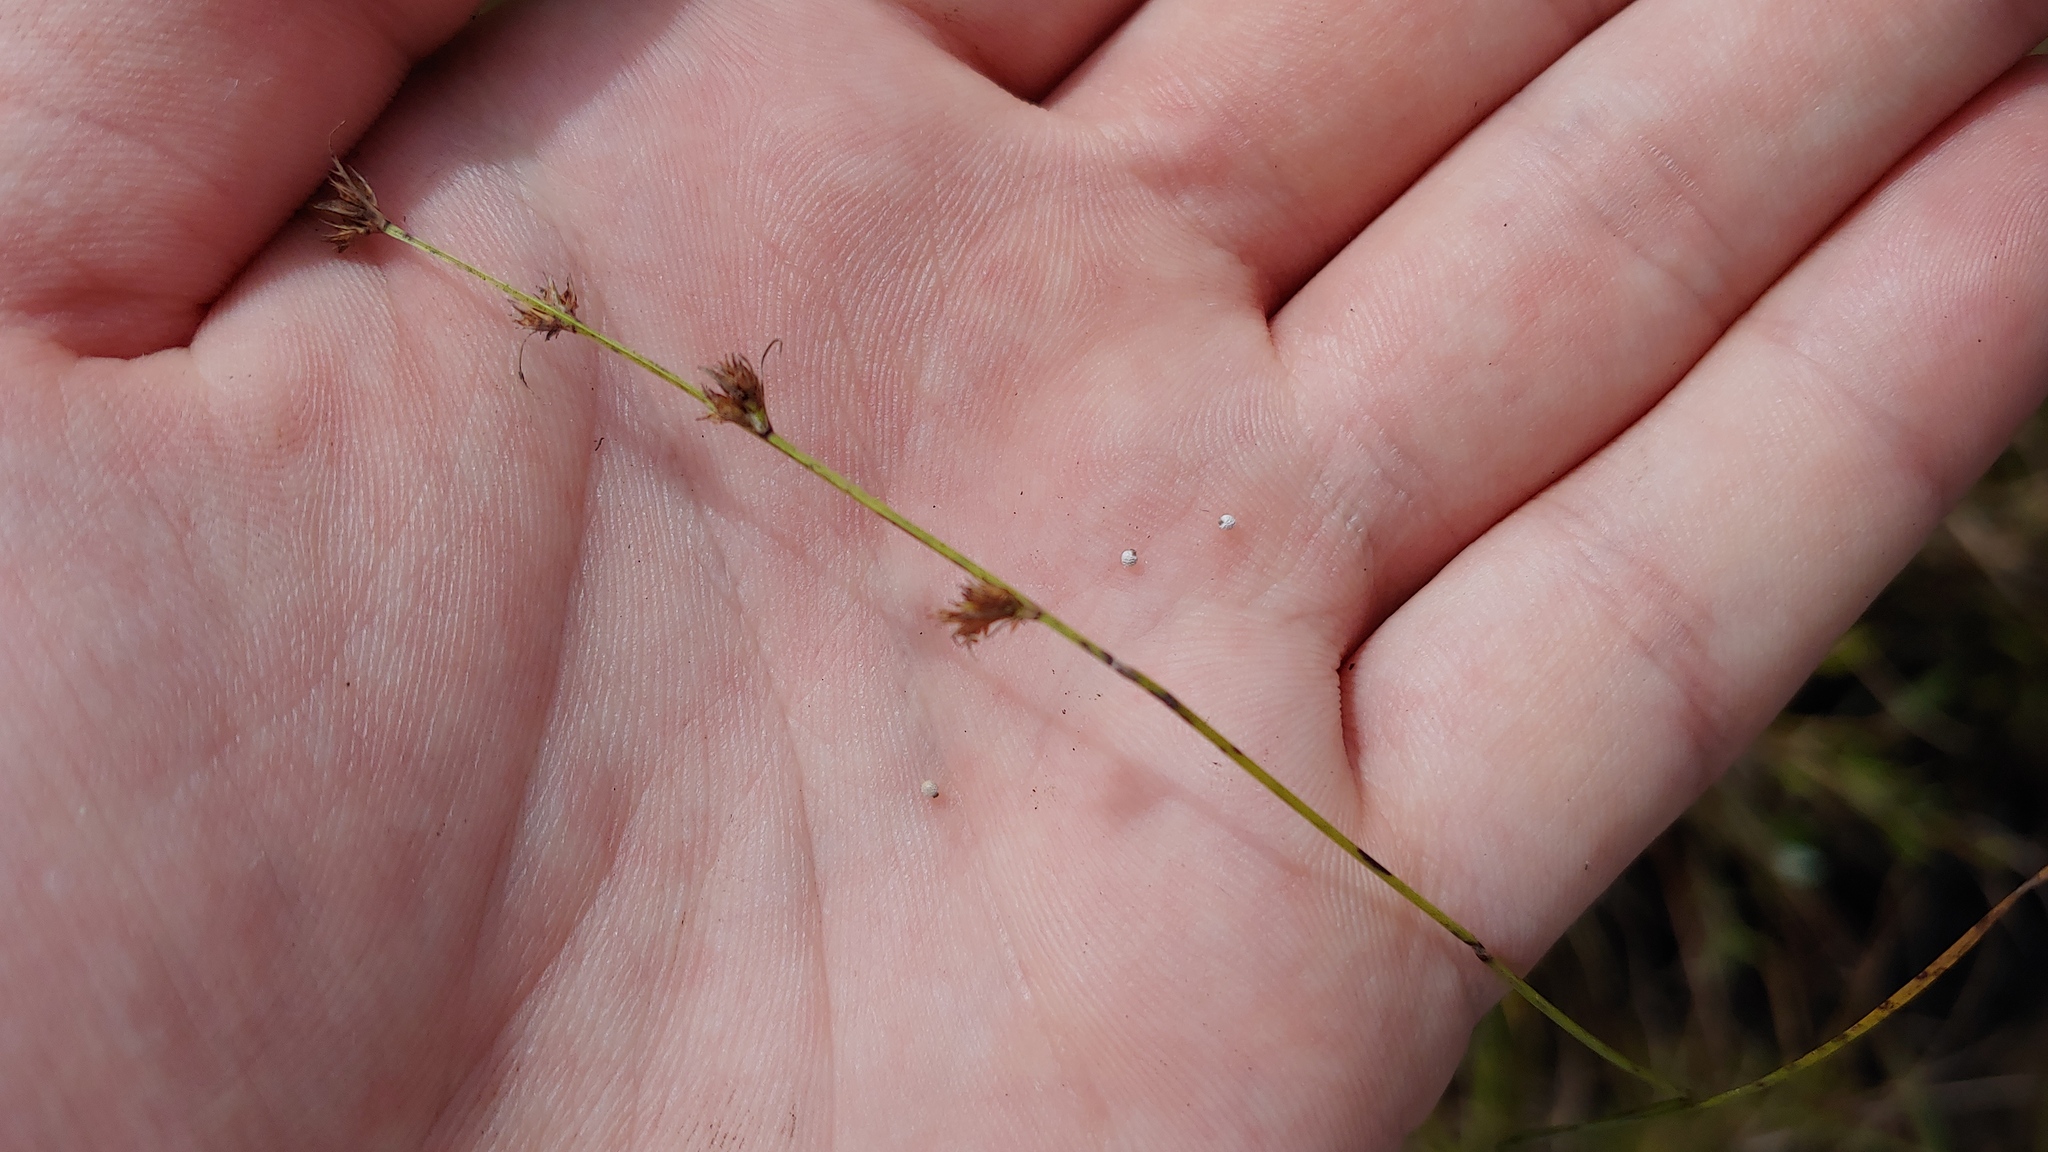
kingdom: Plantae
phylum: Tracheophyta
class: Liliopsida
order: Poales
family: Cyperaceae
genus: Scleria
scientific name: Scleria verticillata
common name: Low nutrush
